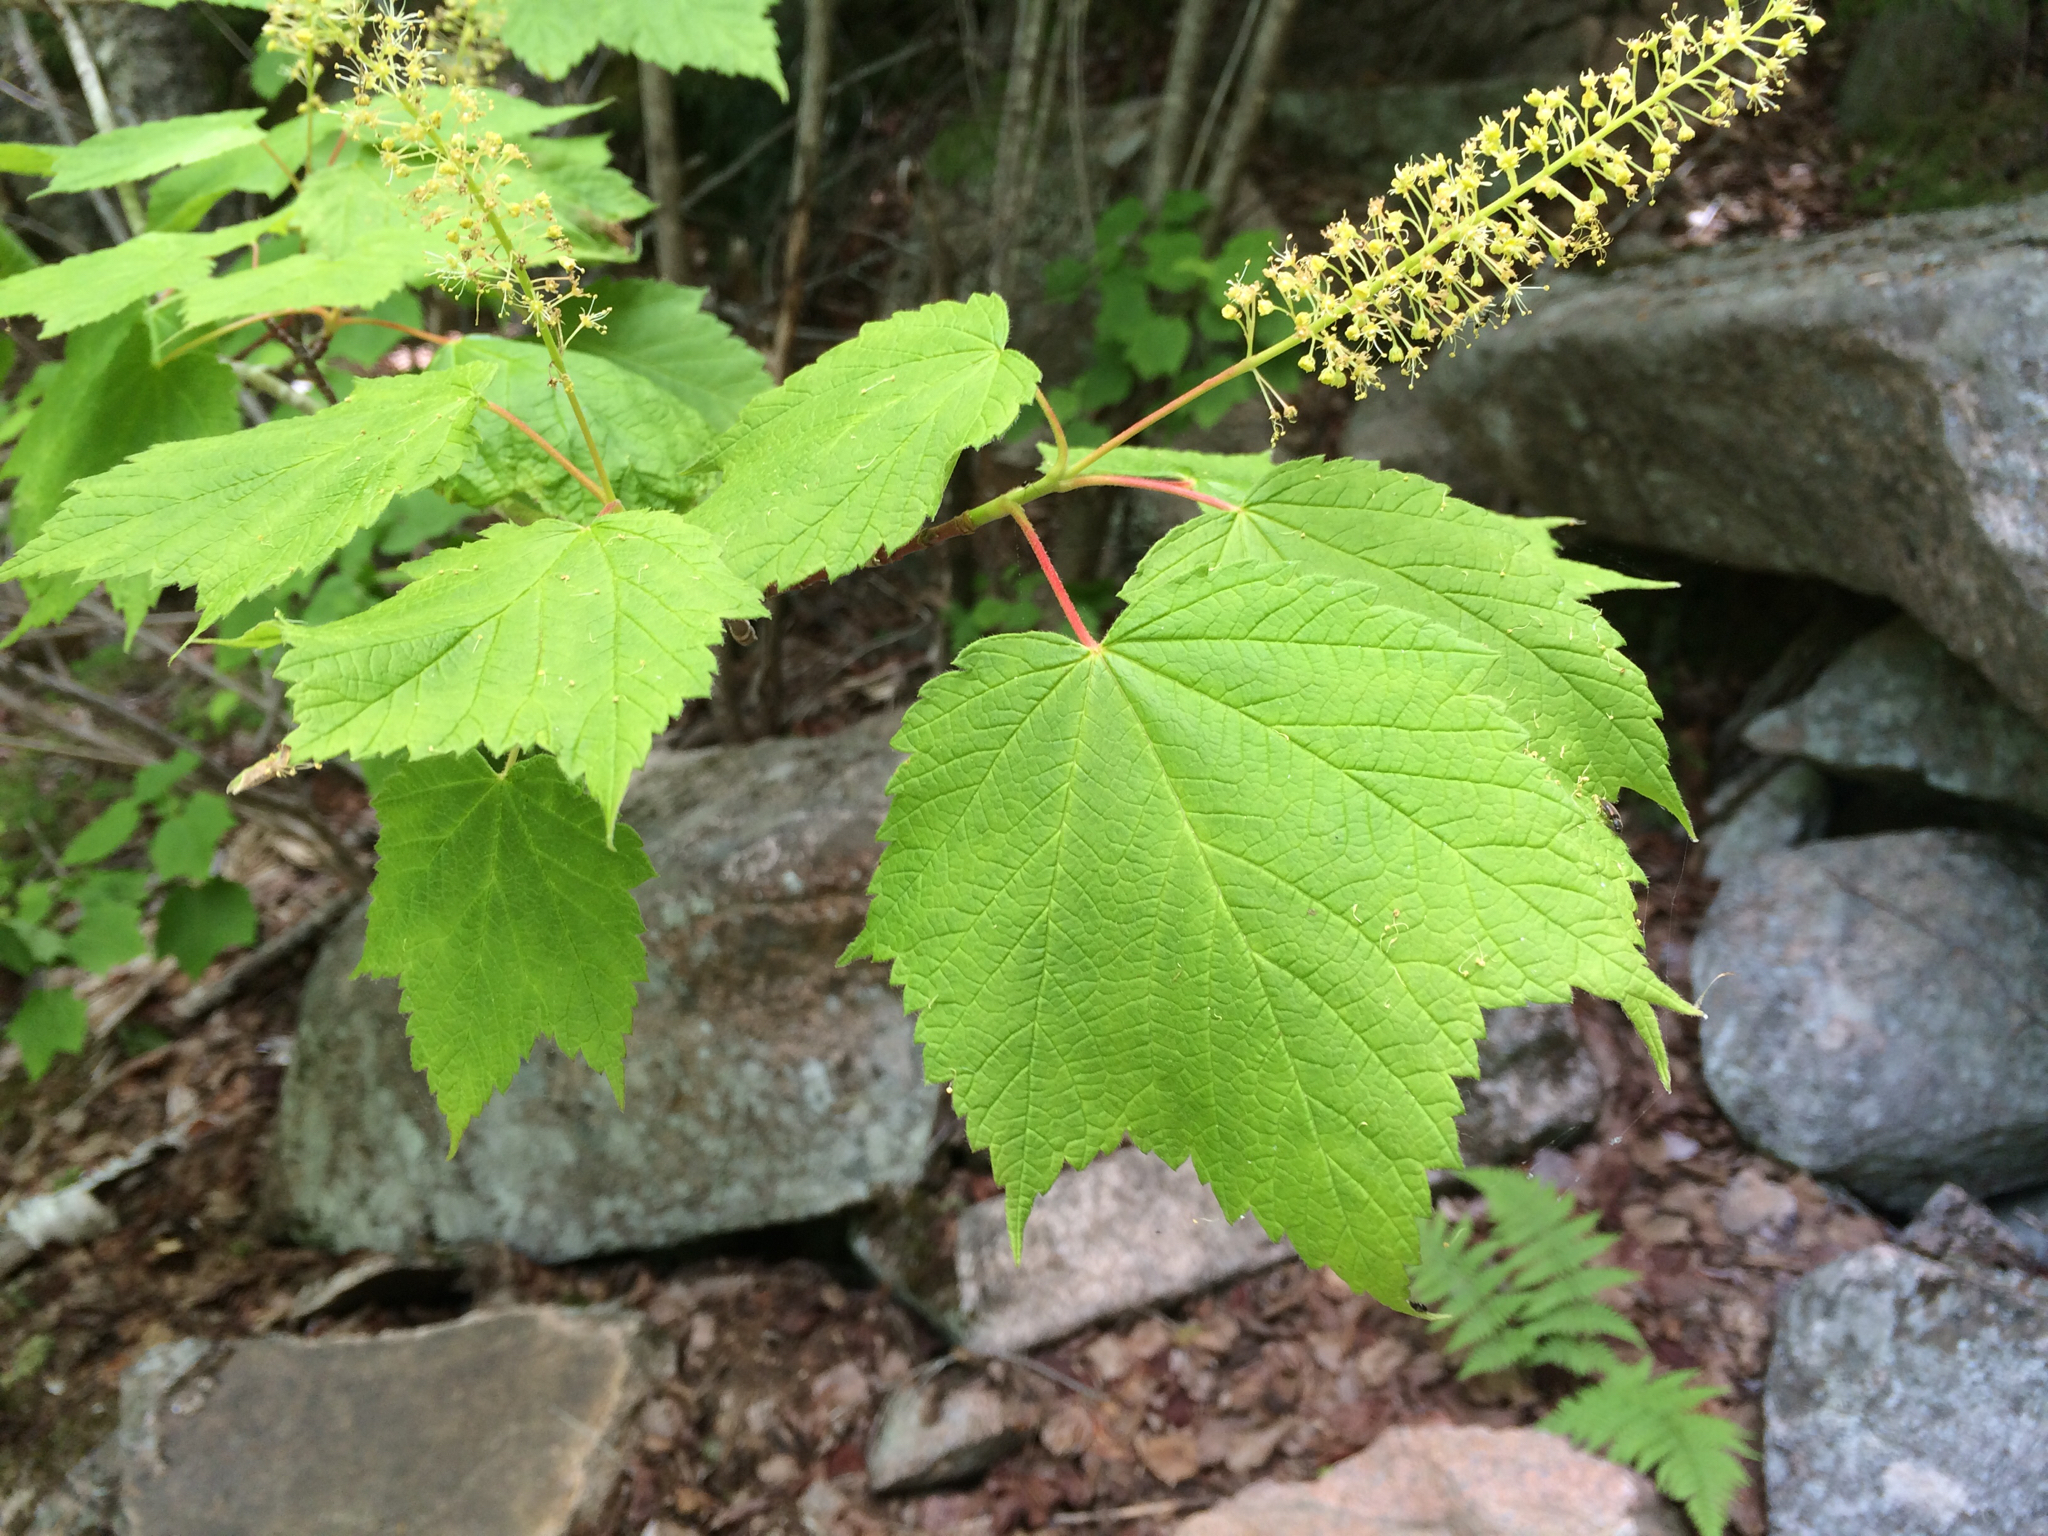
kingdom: Plantae
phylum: Tracheophyta
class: Magnoliopsida
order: Sapindales
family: Sapindaceae
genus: Acer
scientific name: Acer spicatum
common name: Mountain maple
